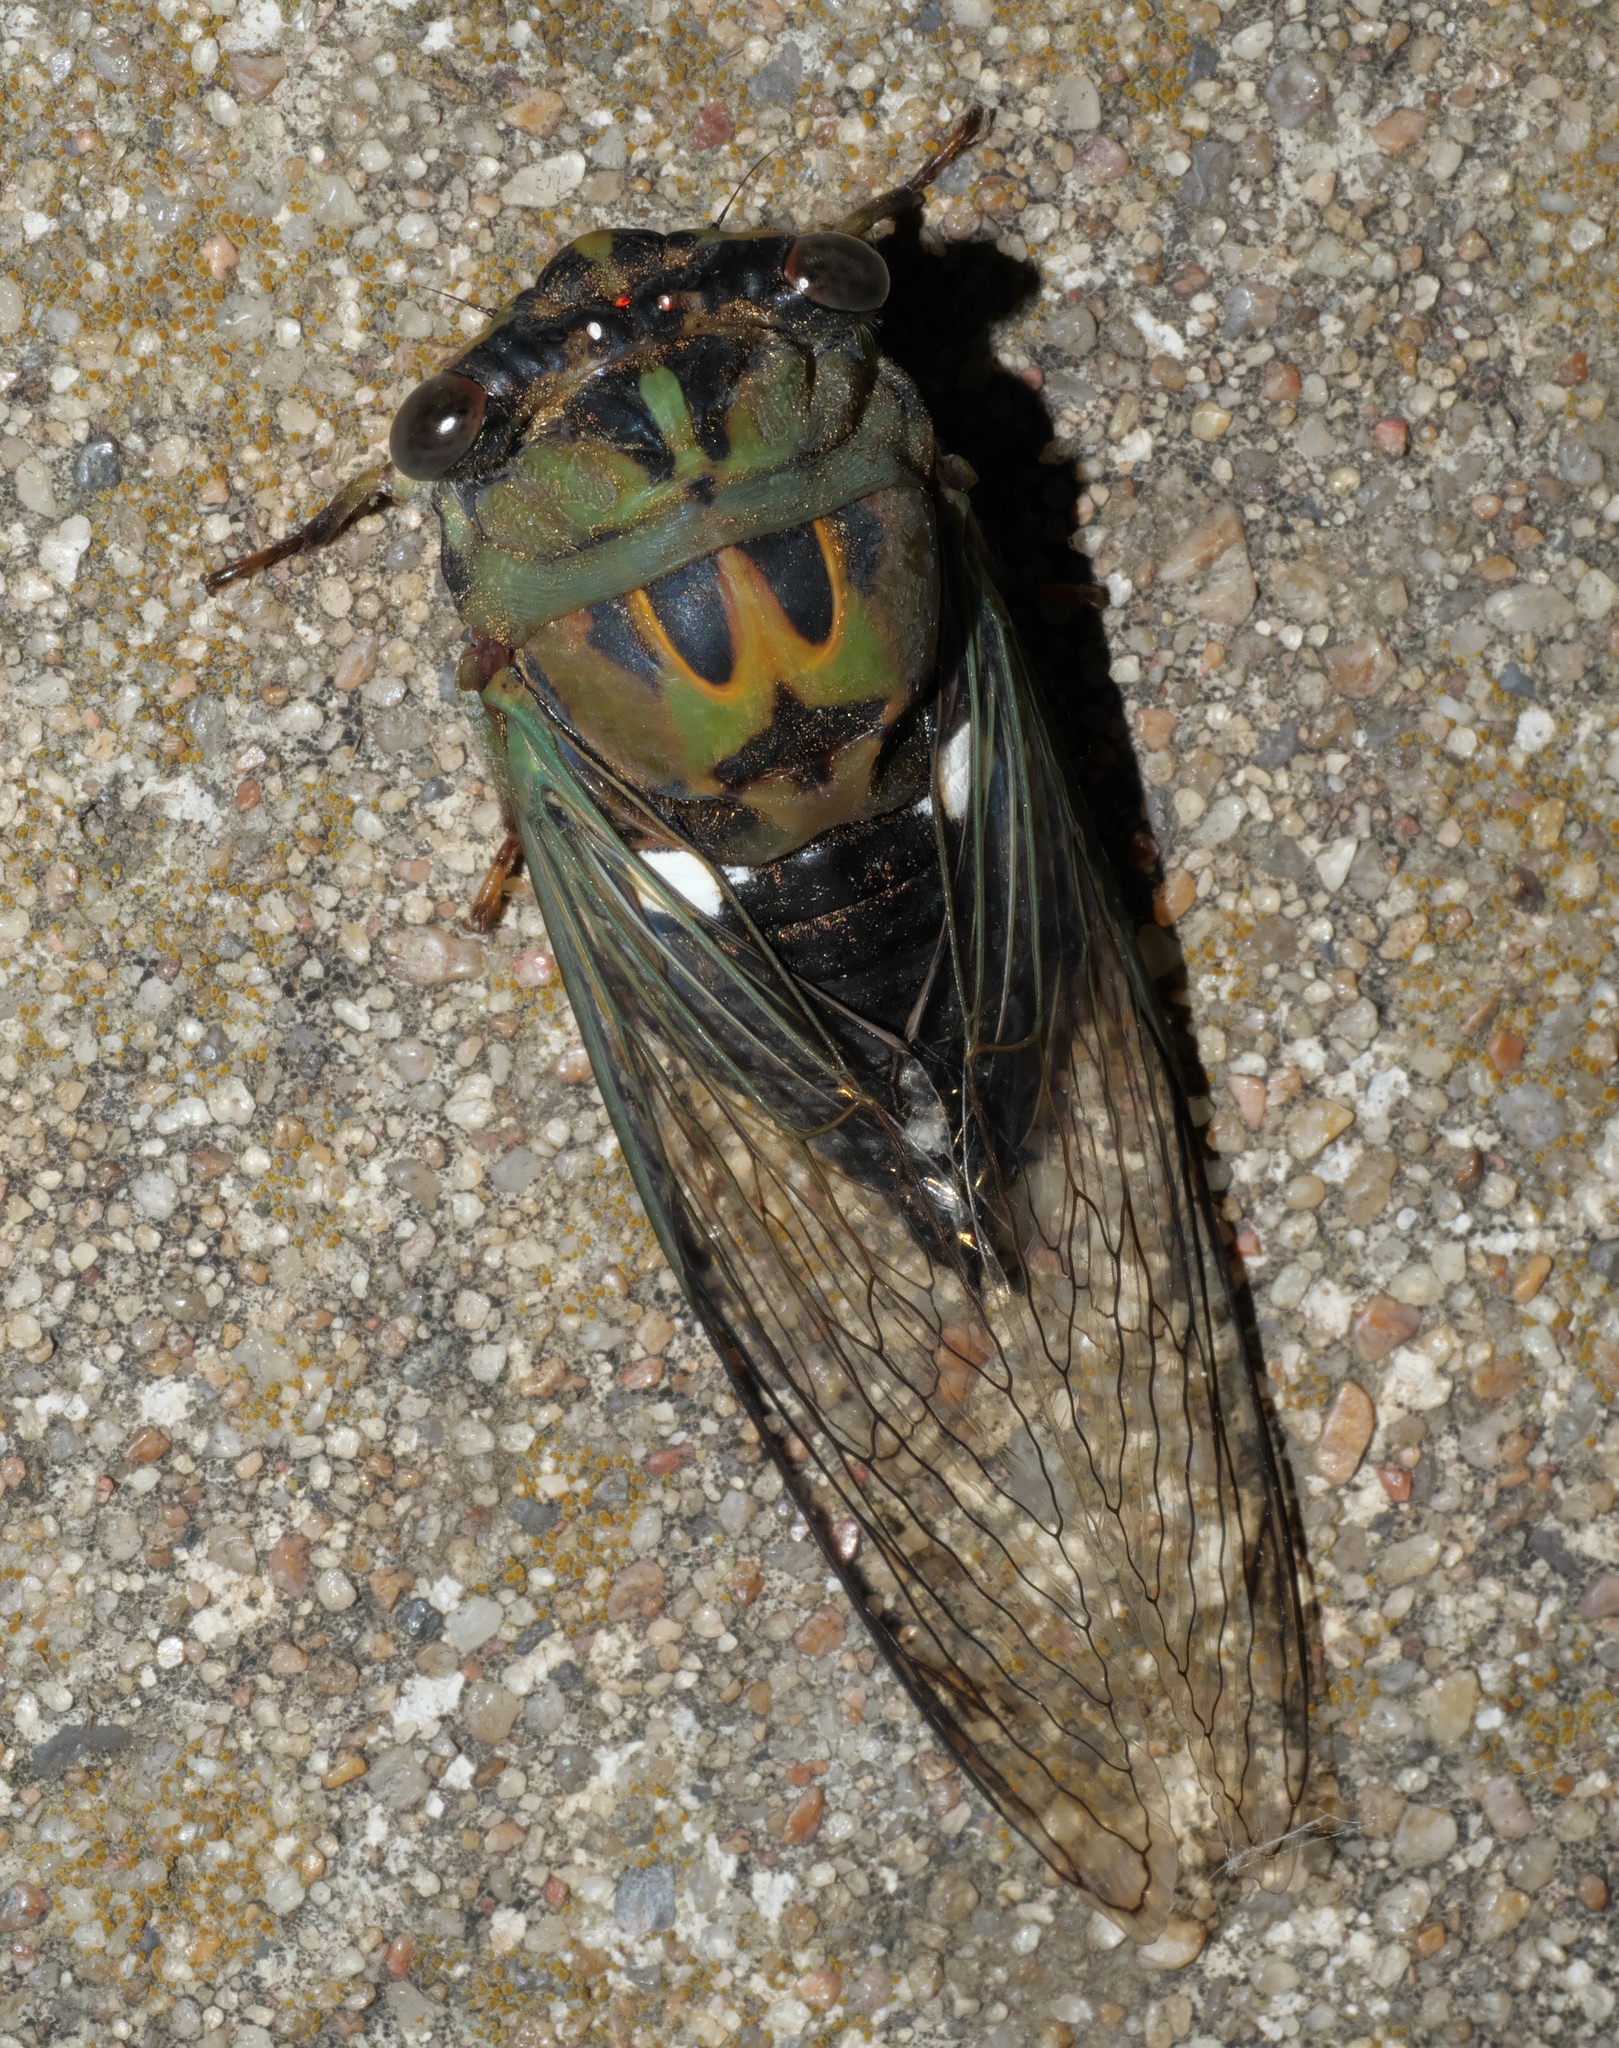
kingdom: Animalia
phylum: Arthropoda
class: Insecta
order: Hemiptera
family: Cicadidae
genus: Neotibicen
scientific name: Neotibicen pruinosus
